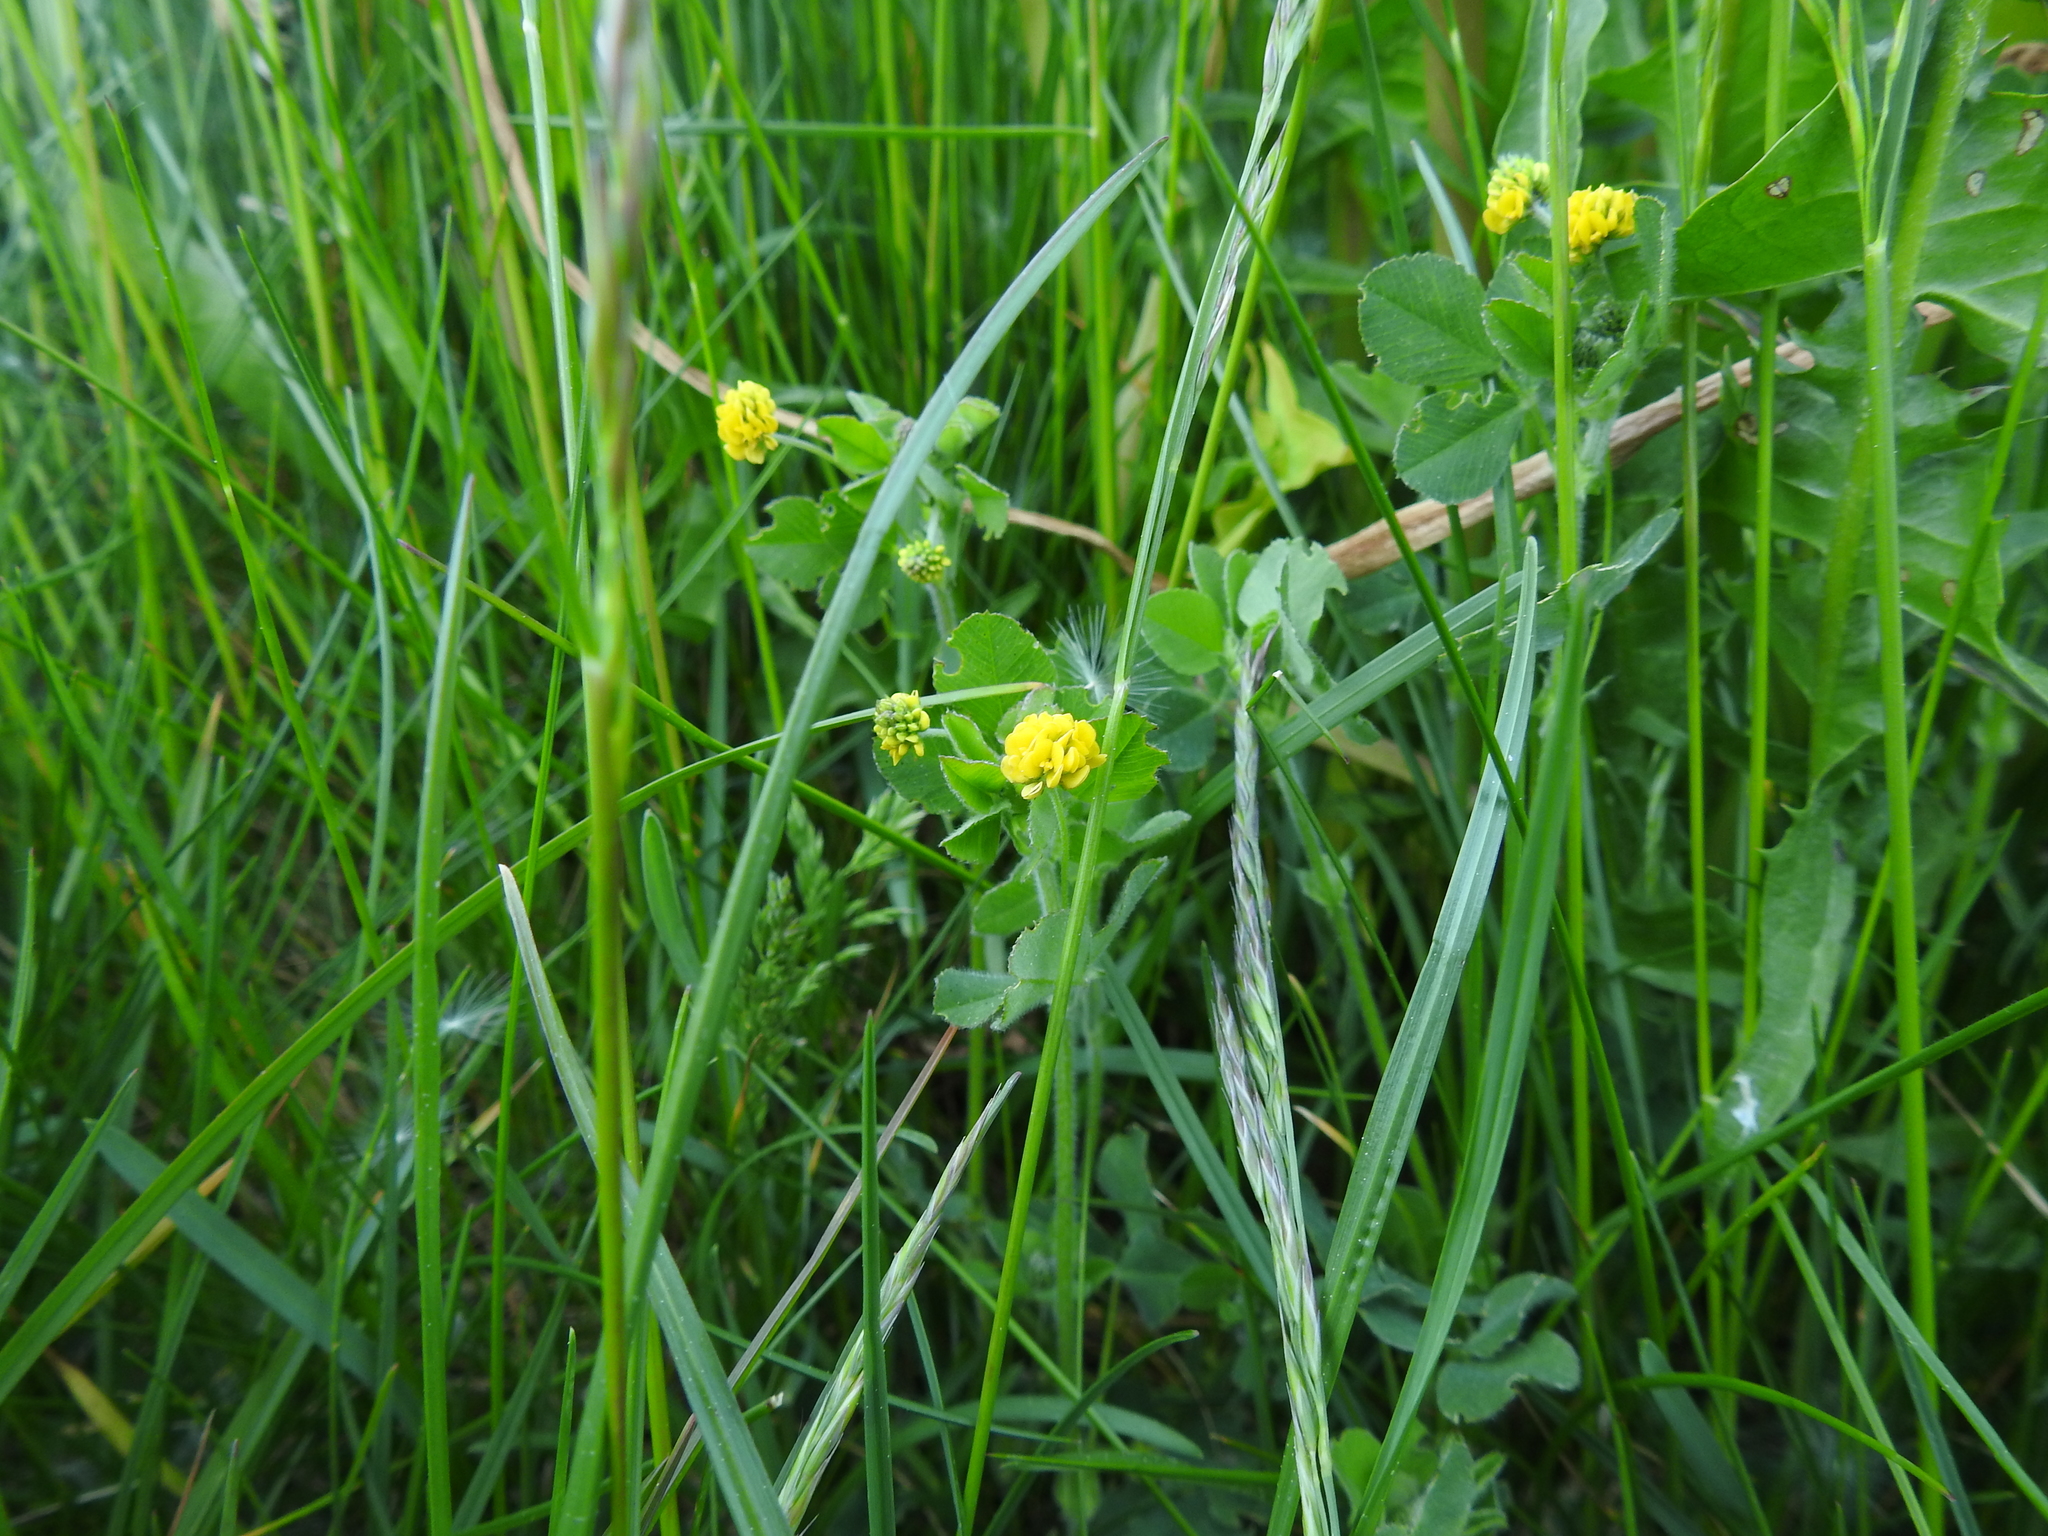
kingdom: Plantae
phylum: Tracheophyta
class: Magnoliopsida
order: Fabales
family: Fabaceae
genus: Medicago
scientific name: Medicago lupulina
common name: Black medick
